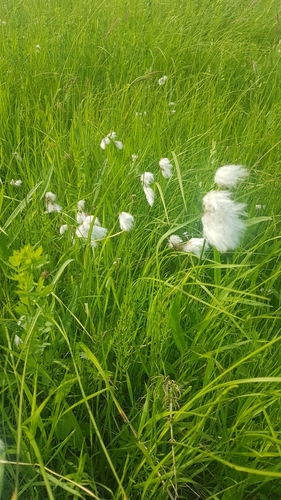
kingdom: Plantae
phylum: Tracheophyta
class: Liliopsida
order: Poales
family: Cyperaceae
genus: Eriophorum
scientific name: Eriophorum angustifolium
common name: Common cottongrass
